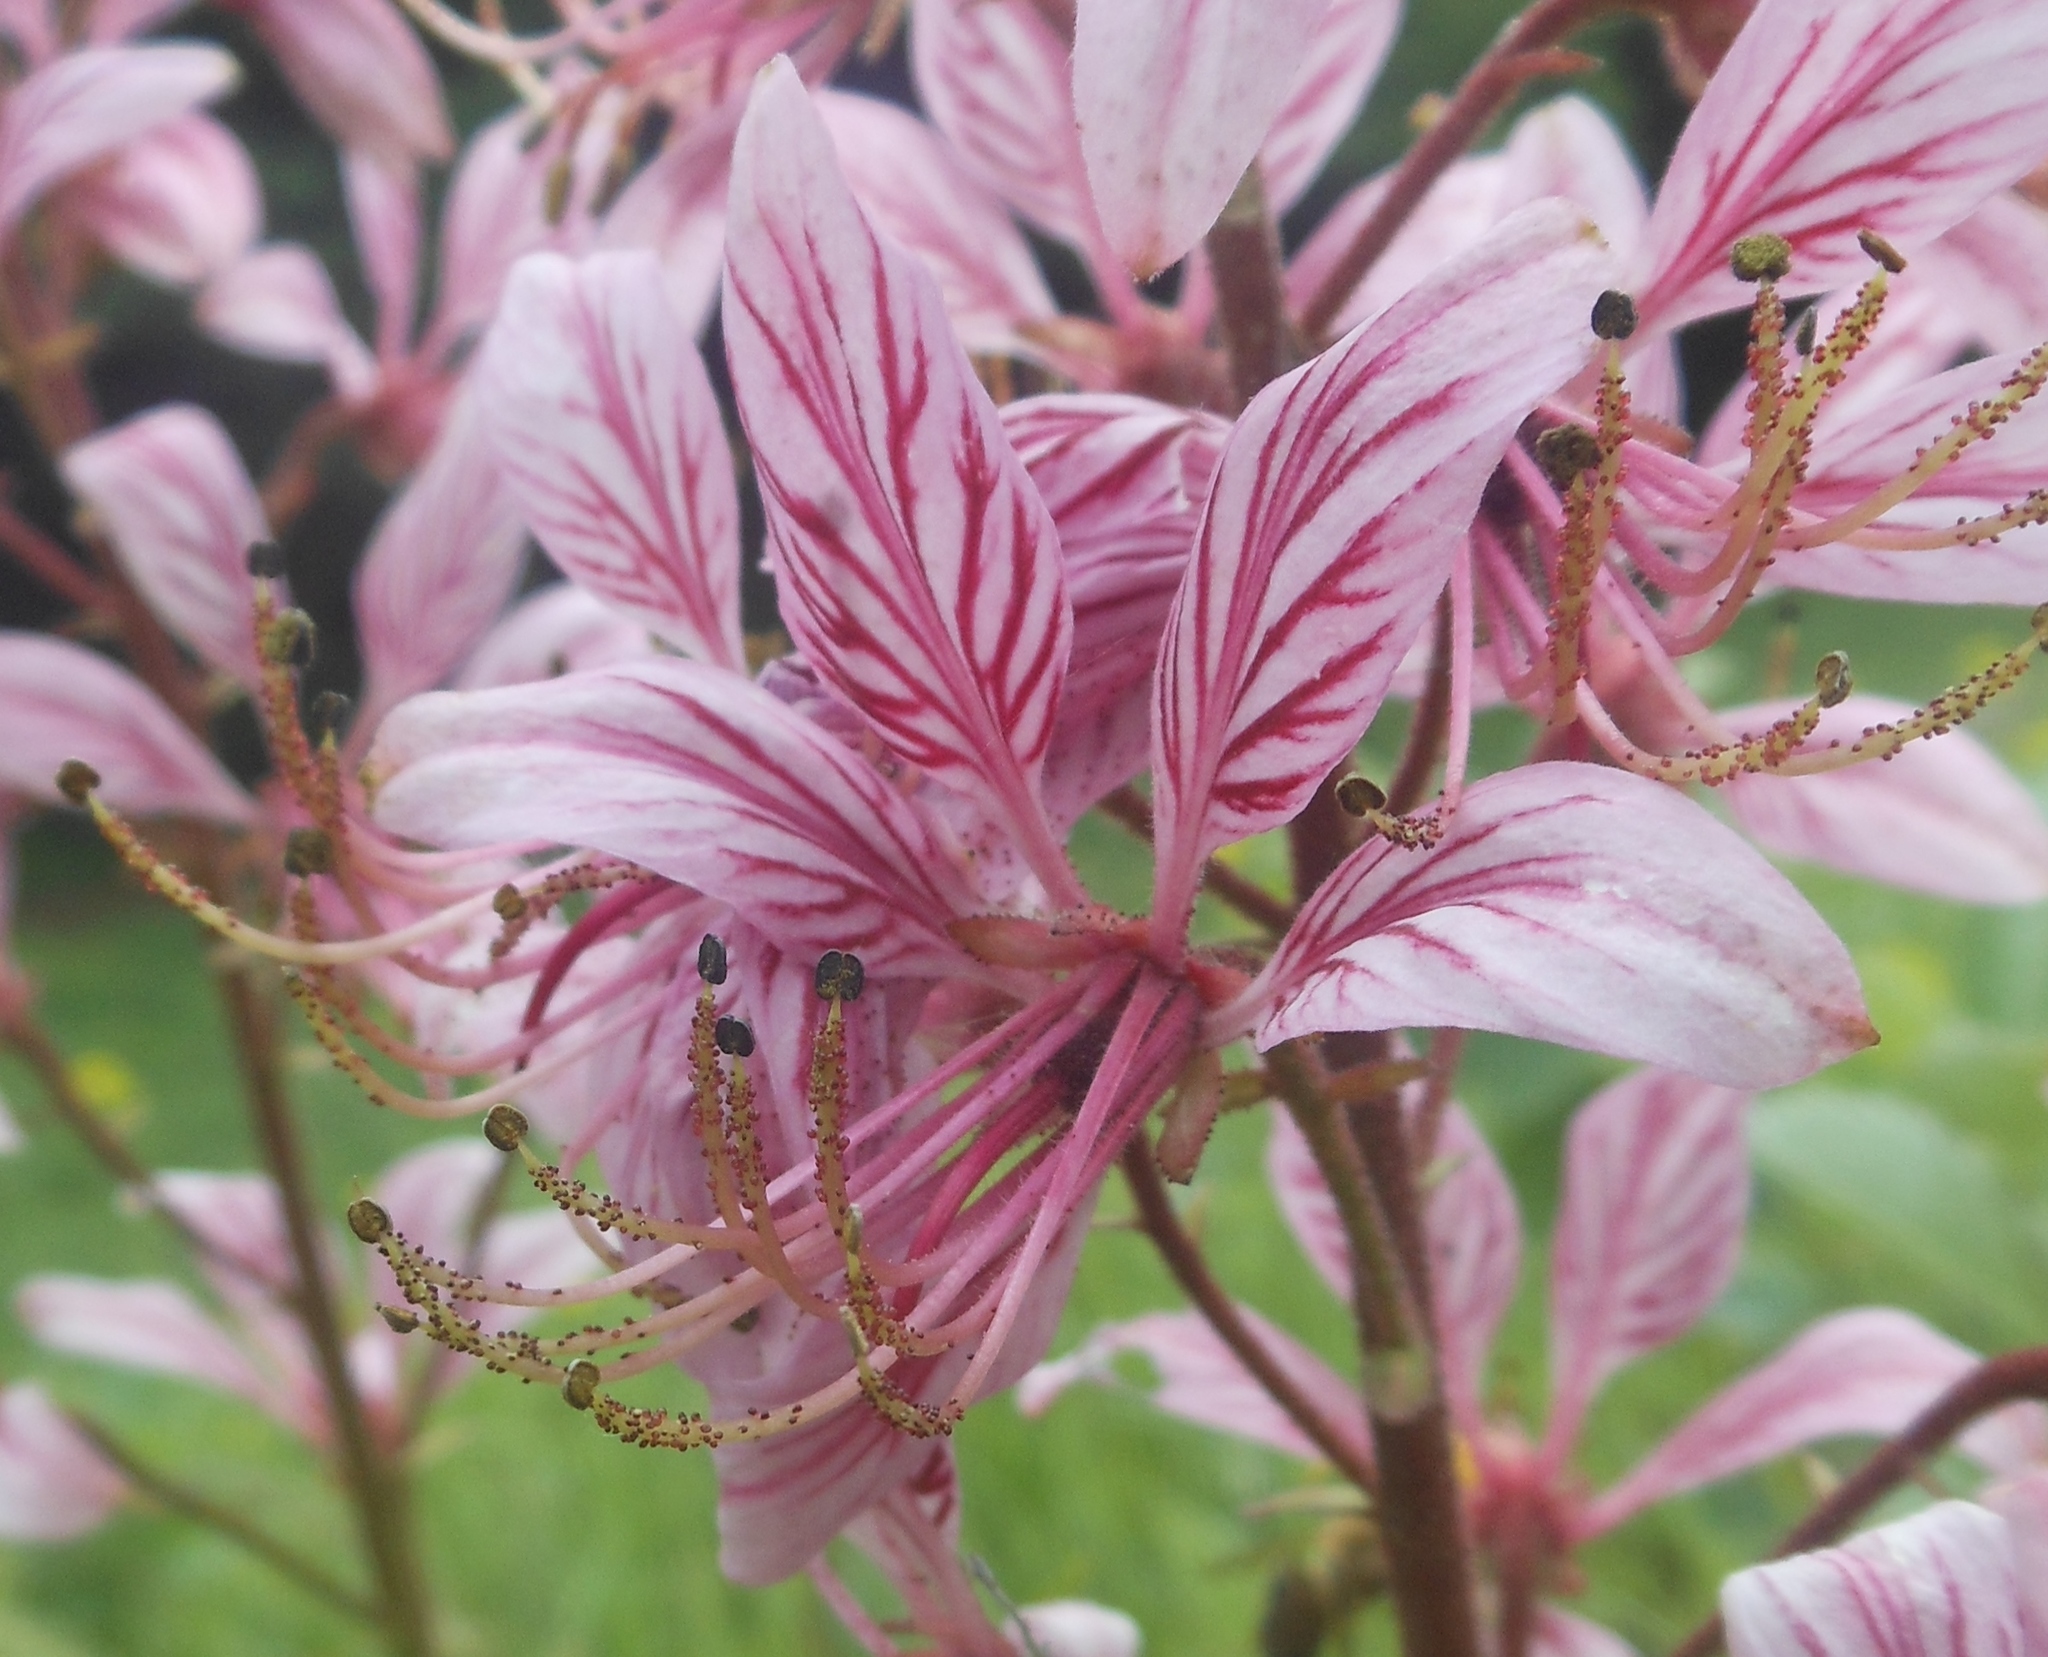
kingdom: Plantae
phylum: Tracheophyta
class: Magnoliopsida
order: Sapindales
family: Rutaceae
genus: Dictamnus
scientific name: Dictamnus albus
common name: Gasplant
